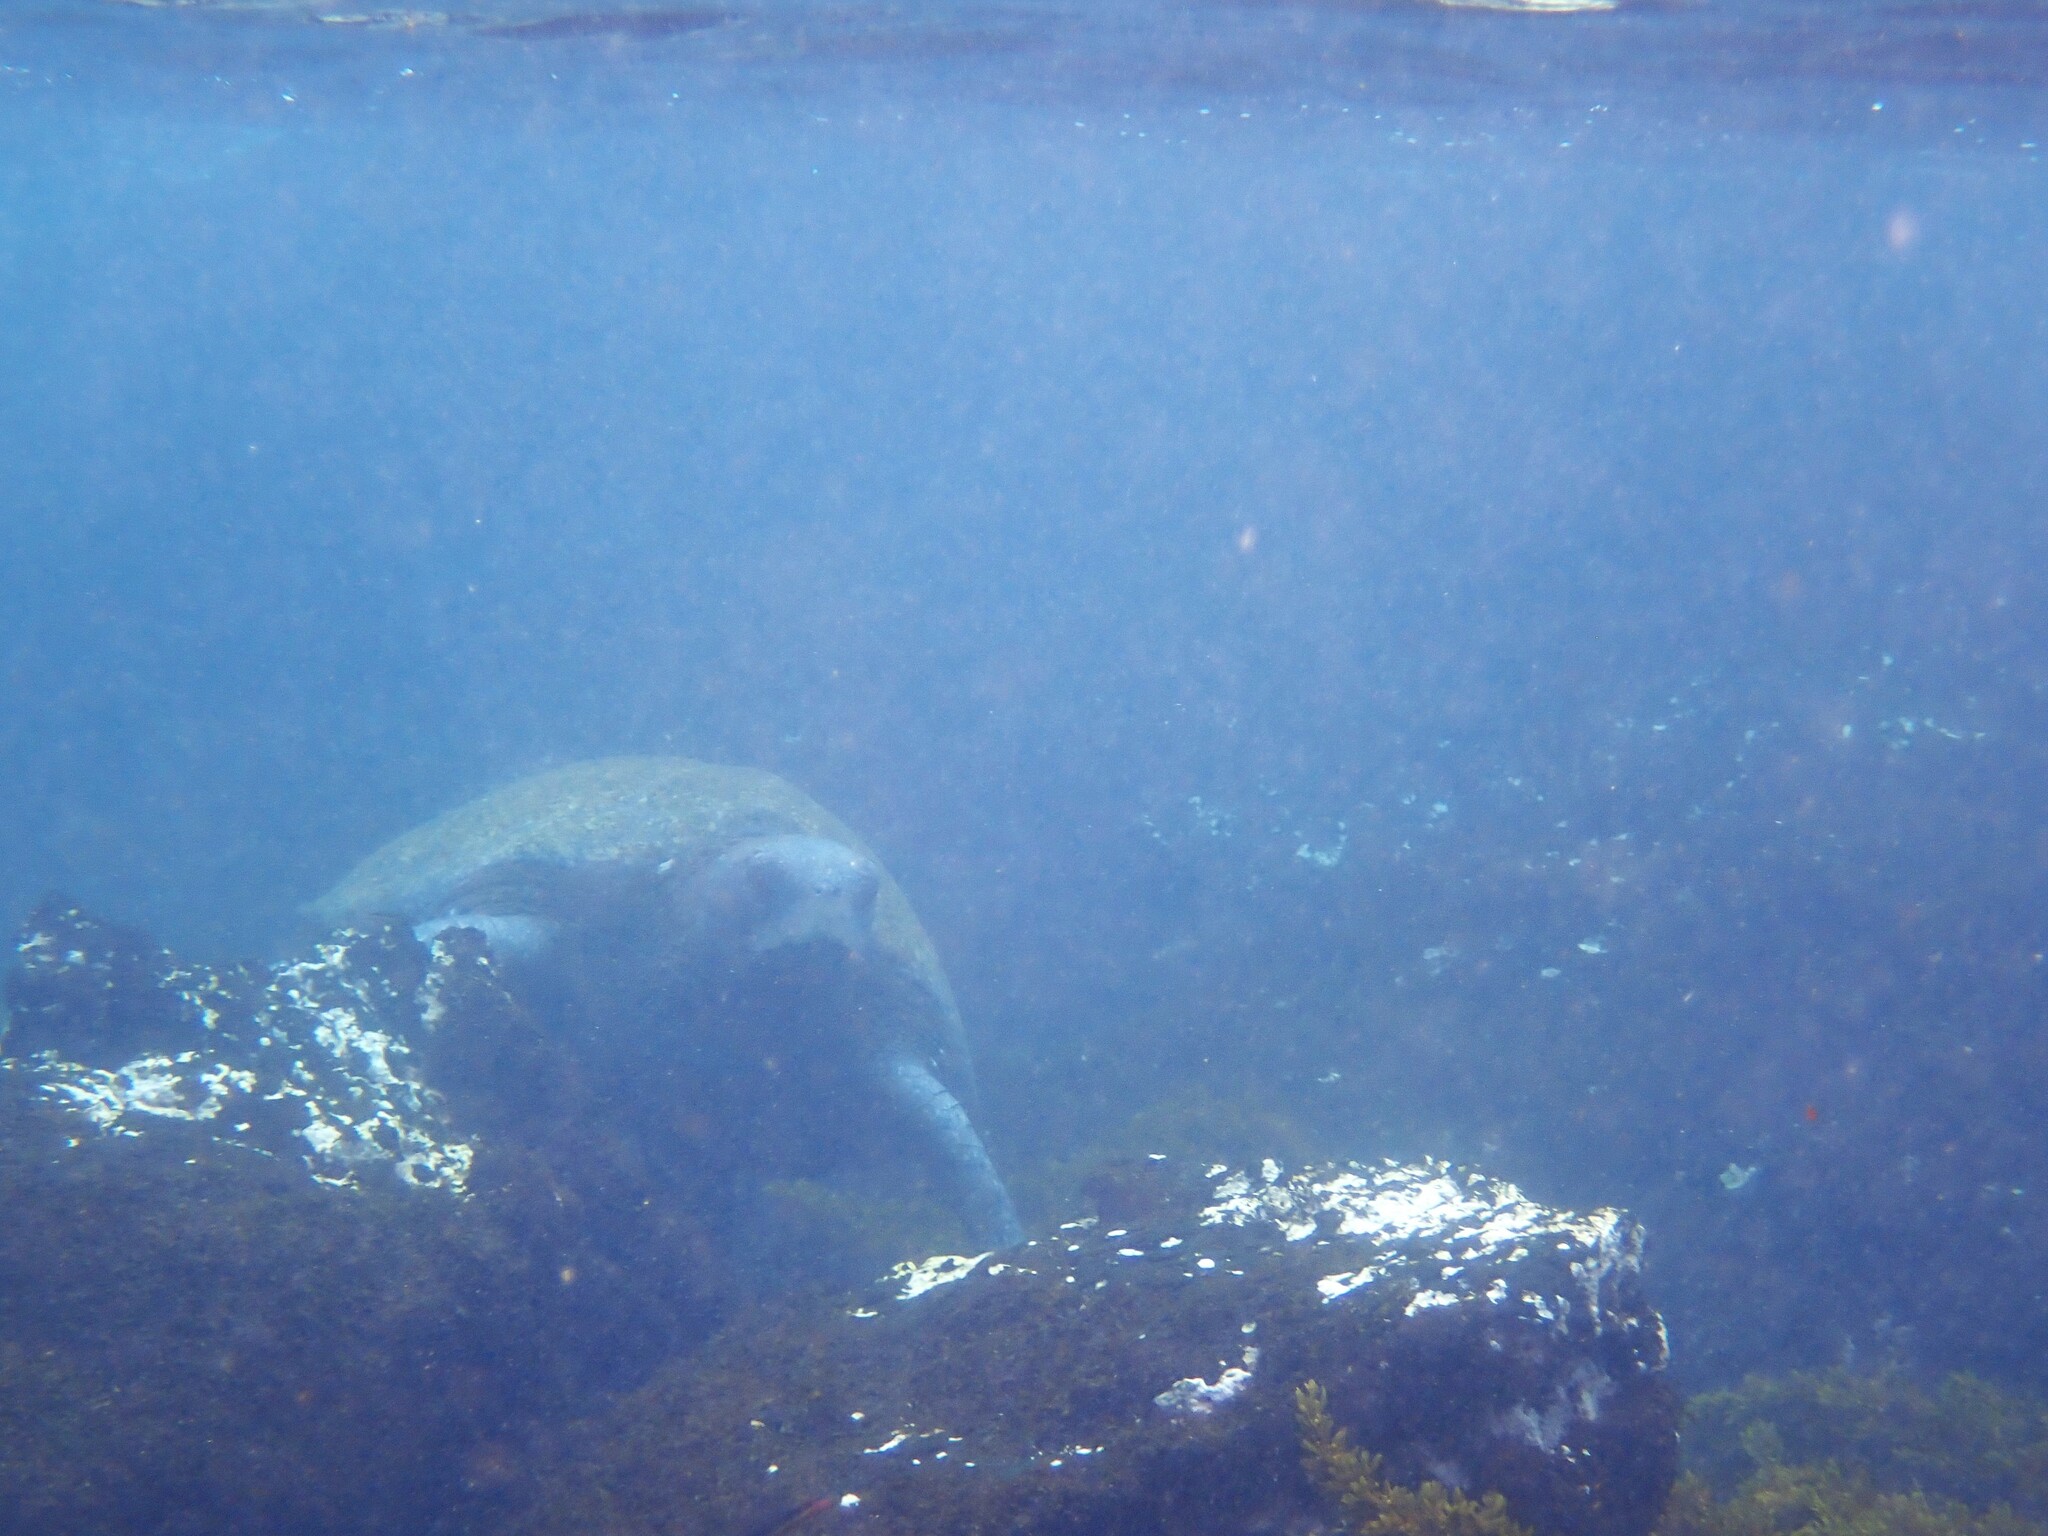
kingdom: Animalia
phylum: Chordata
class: Testudines
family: Cheloniidae
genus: Chelonia
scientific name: Chelonia mydas
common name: Green turtle
